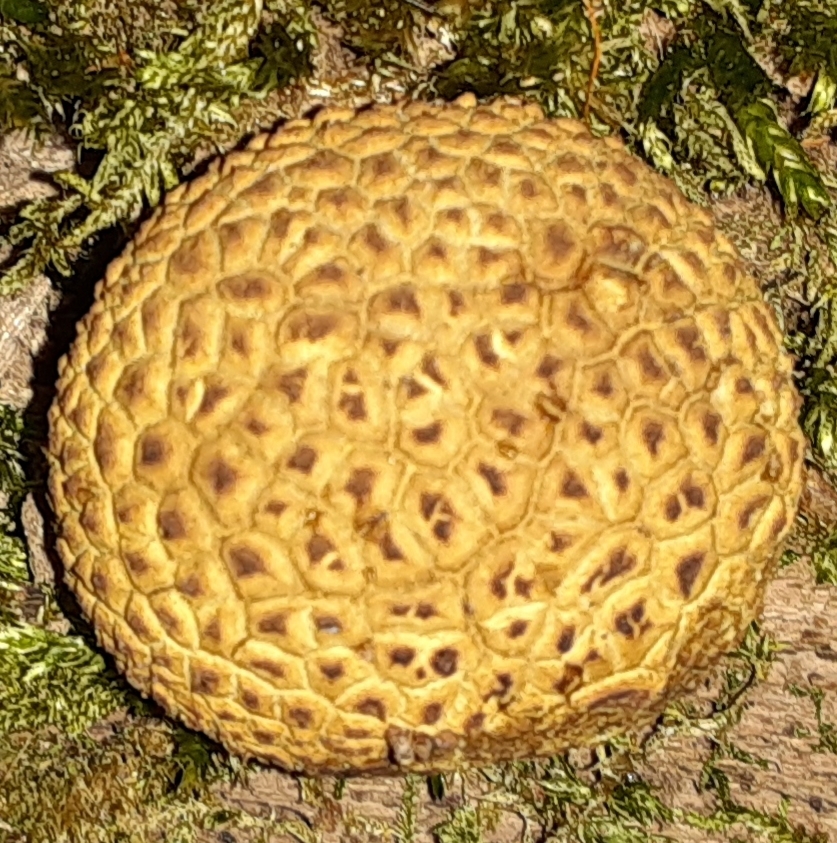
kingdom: Fungi
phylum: Basidiomycota
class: Agaricomycetes
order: Boletales
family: Sclerodermataceae
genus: Scleroderma
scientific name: Scleroderma citrinum
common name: Common earthball
